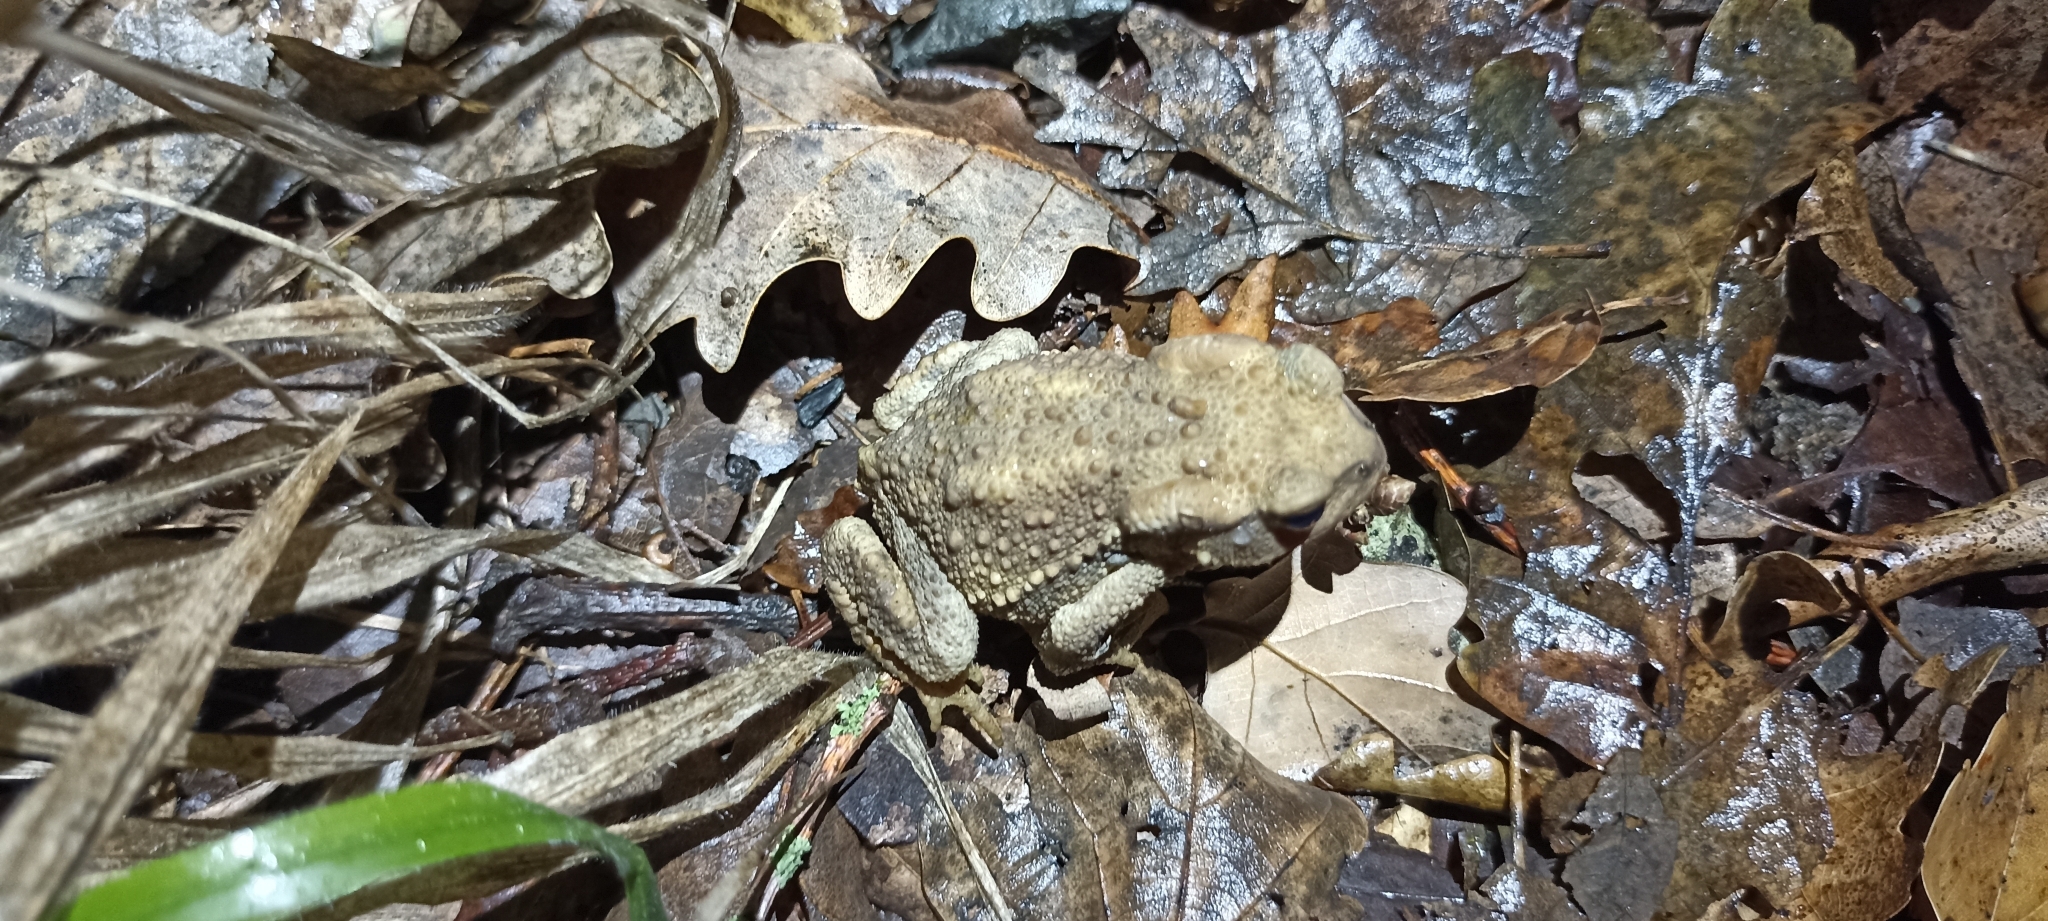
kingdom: Animalia
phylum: Chordata
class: Amphibia
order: Anura
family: Bufonidae
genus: Bufo
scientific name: Bufo spinosus
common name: Western common toad
